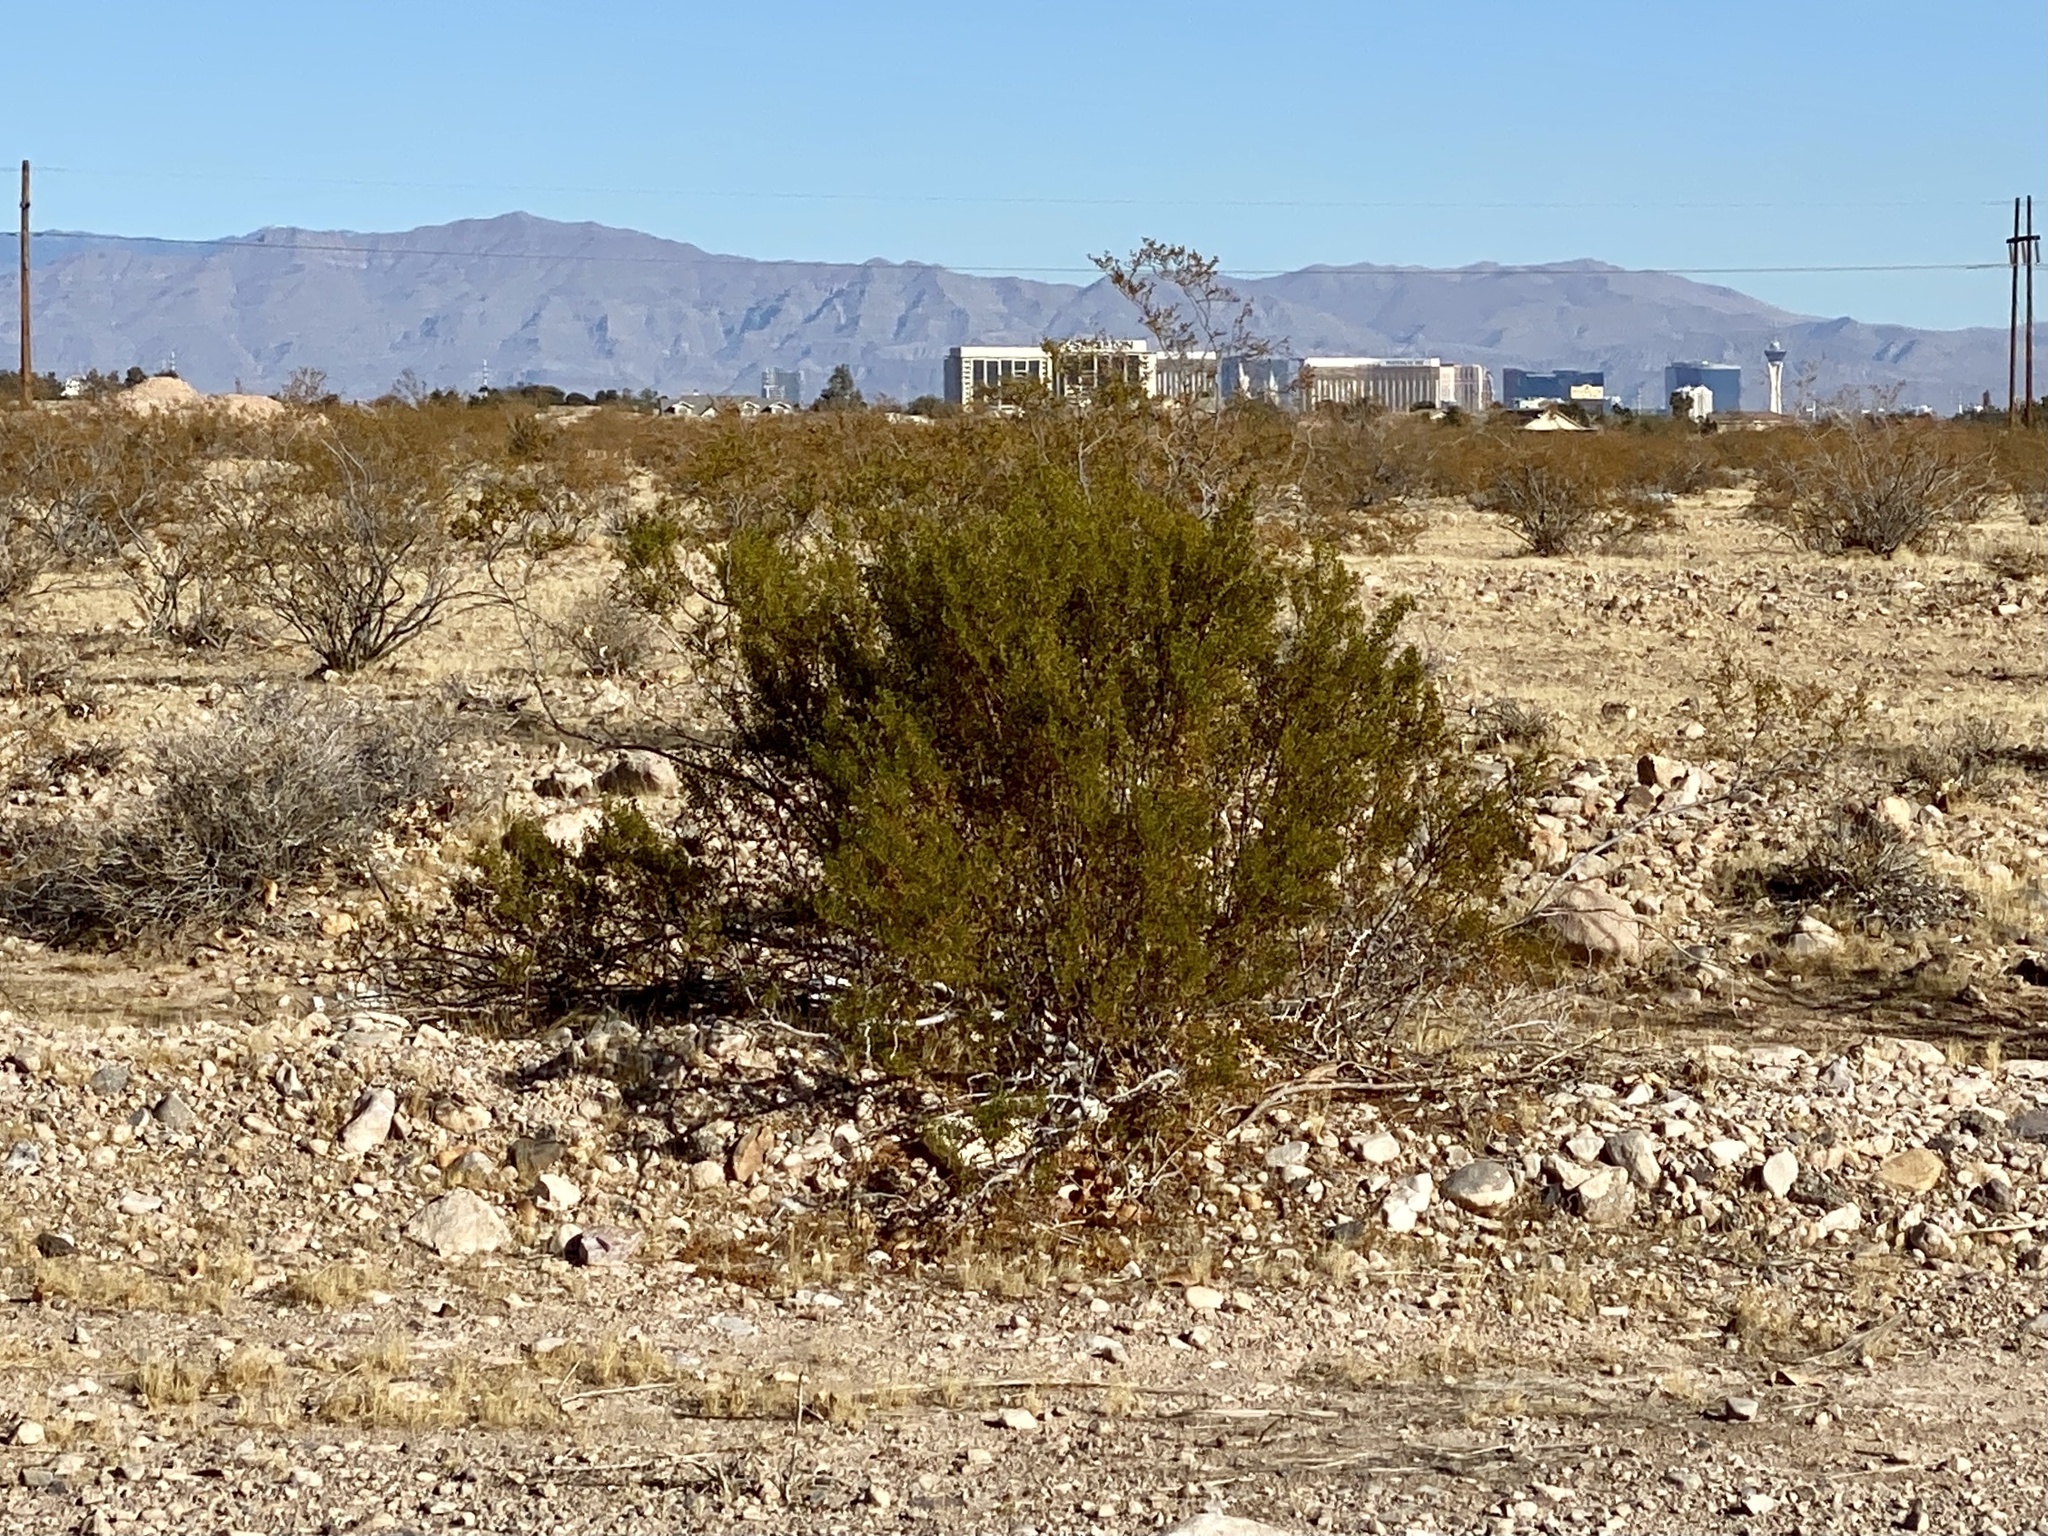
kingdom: Plantae
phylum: Tracheophyta
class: Magnoliopsida
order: Zygophyllales
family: Zygophyllaceae
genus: Larrea
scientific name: Larrea tridentata
